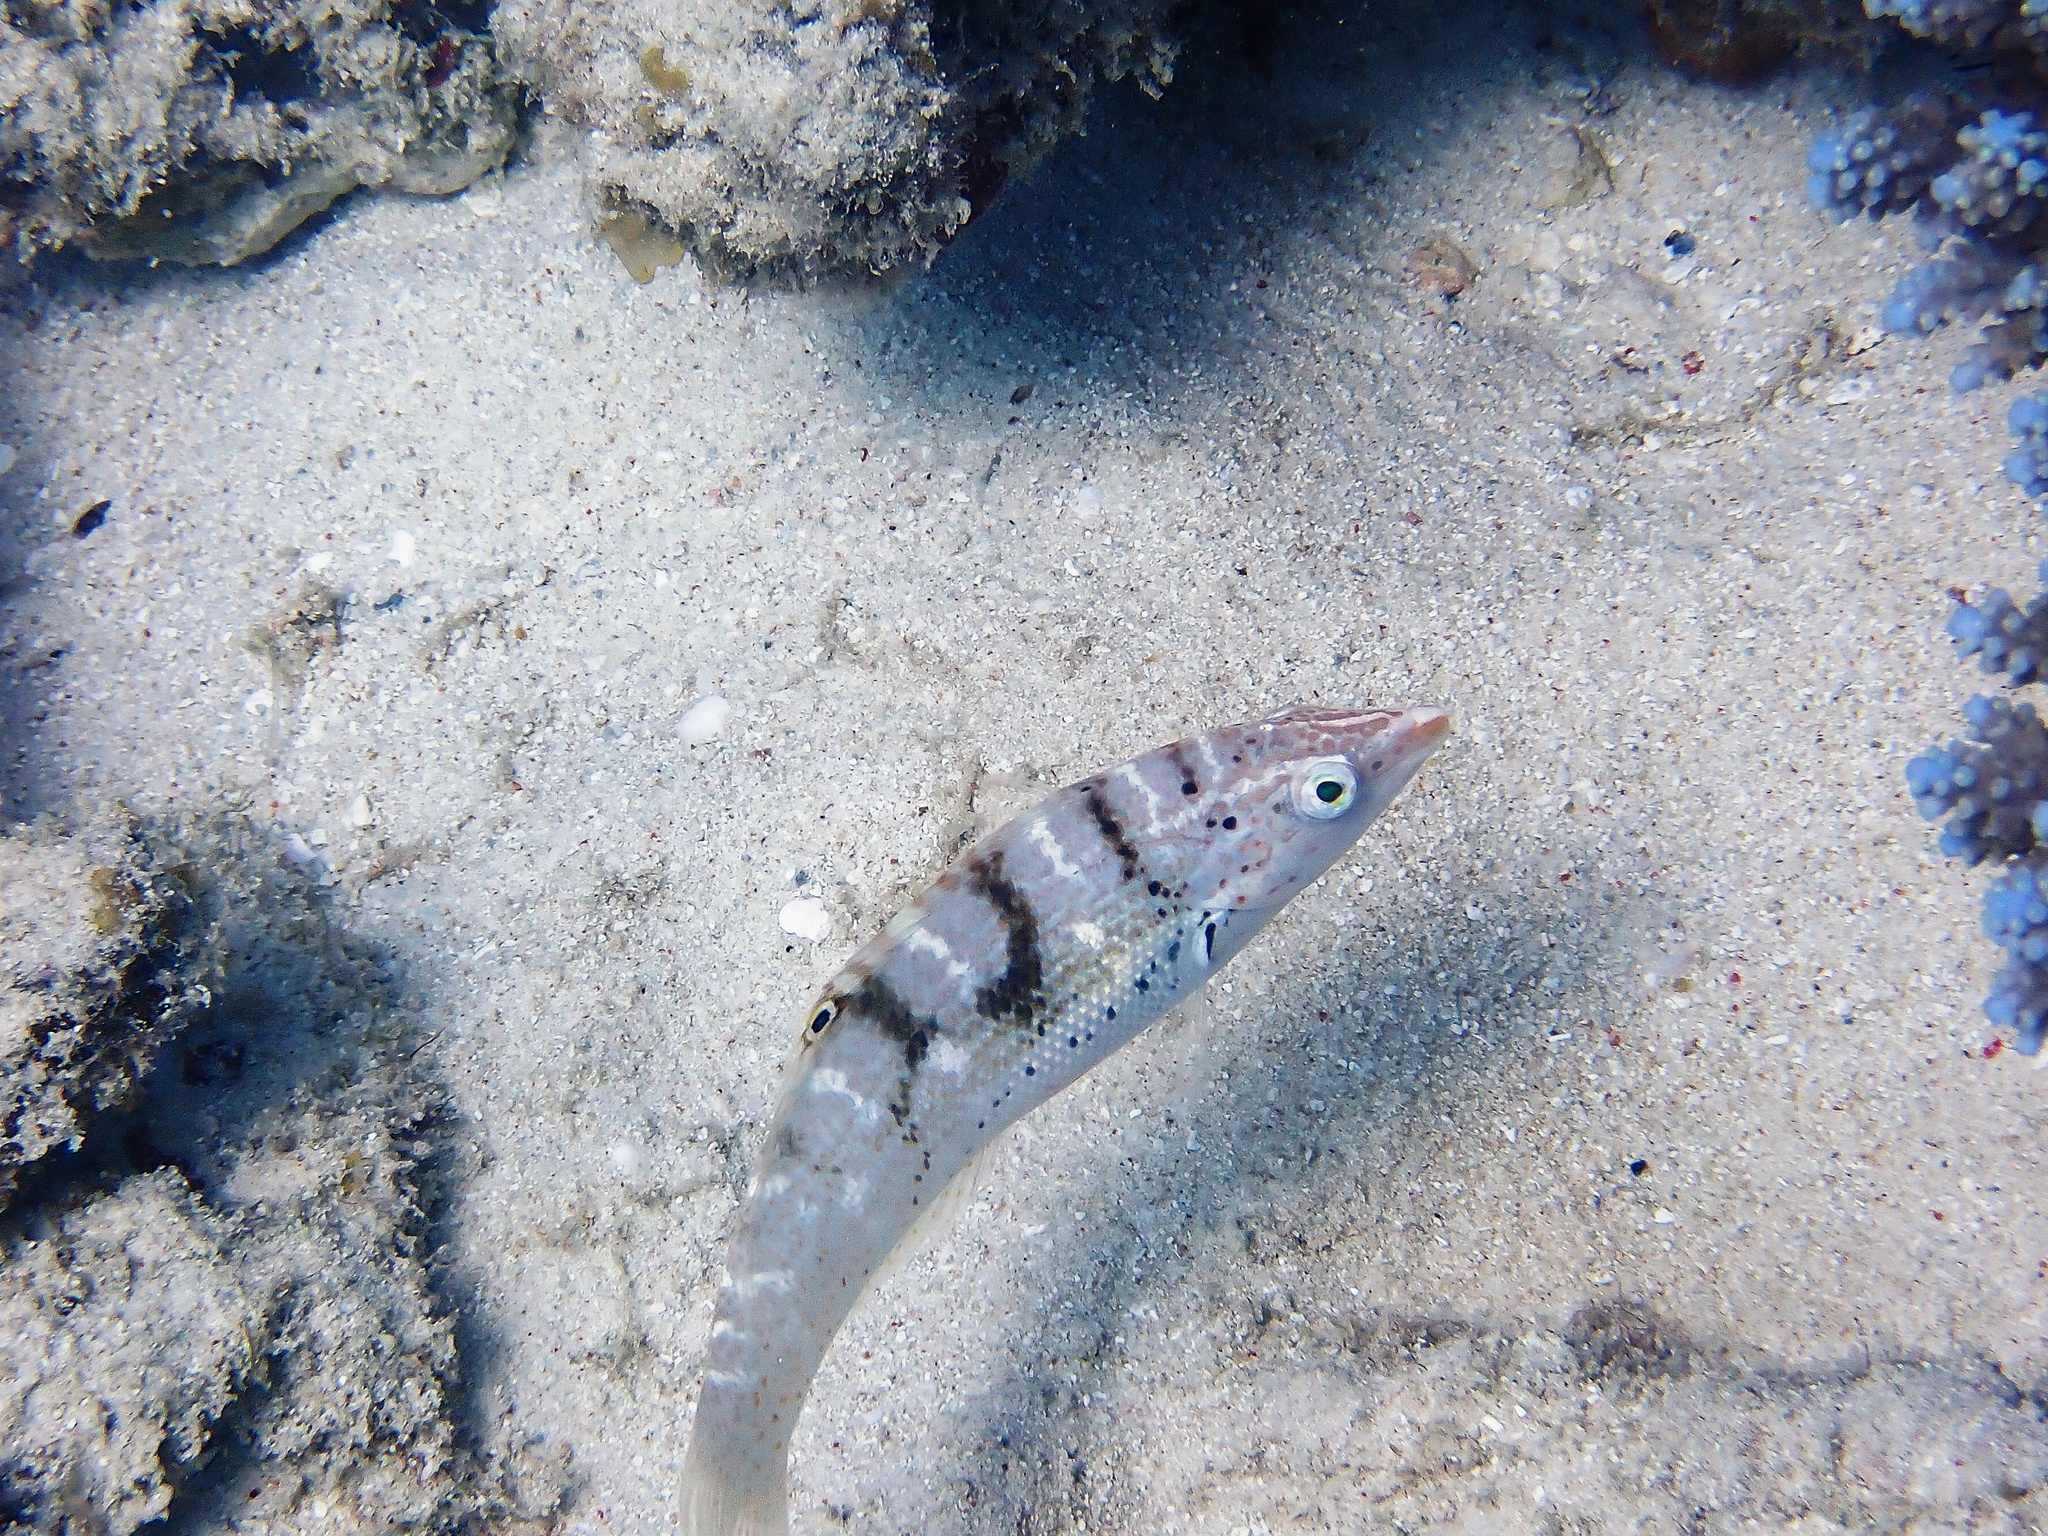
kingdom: Animalia
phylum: Chordata
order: Perciformes
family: Labridae
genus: Coris
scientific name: Coris batuensis
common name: Batu coris
